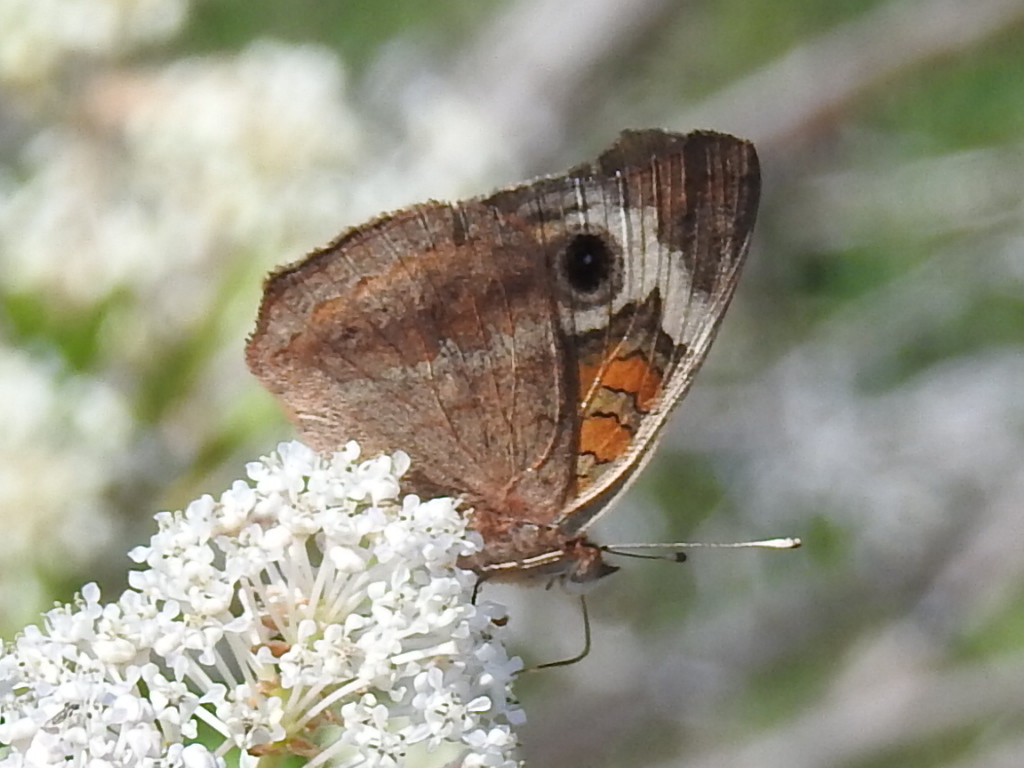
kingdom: Animalia
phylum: Arthropoda
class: Insecta
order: Lepidoptera
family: Nymphalidae
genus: Junonia
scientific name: Junonia coenia
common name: Common buckeye
